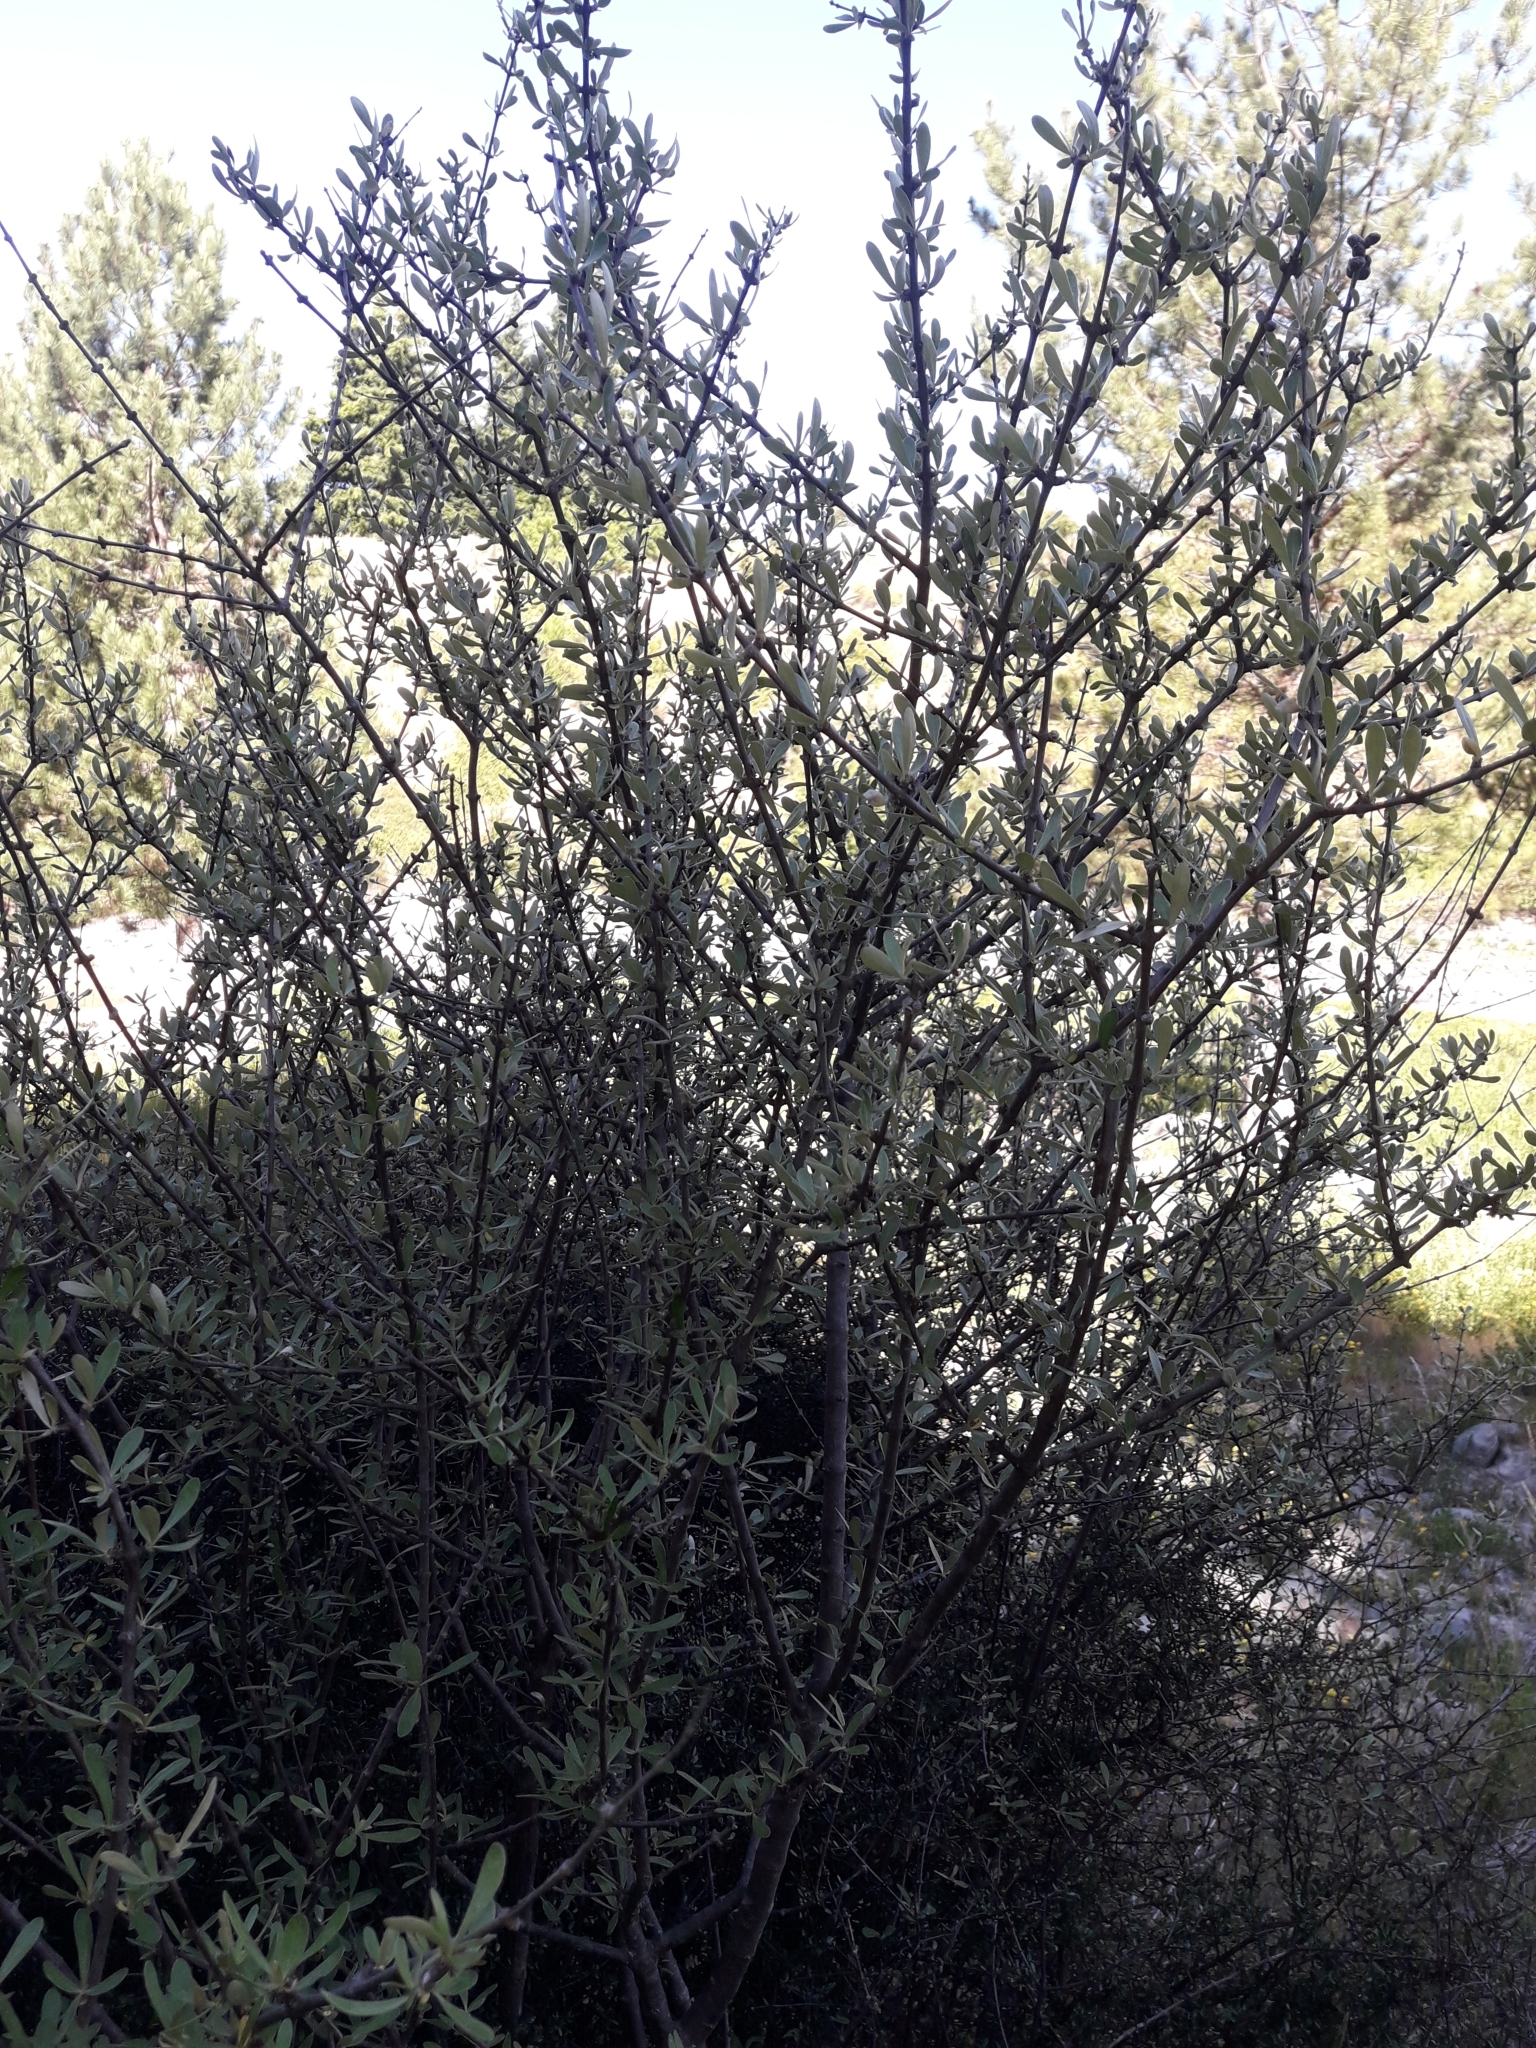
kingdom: Plantae
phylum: Tracheophyta
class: Magnoliopsida
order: Asterales
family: Asteraceae
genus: Olearia
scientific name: Olearia odorata
